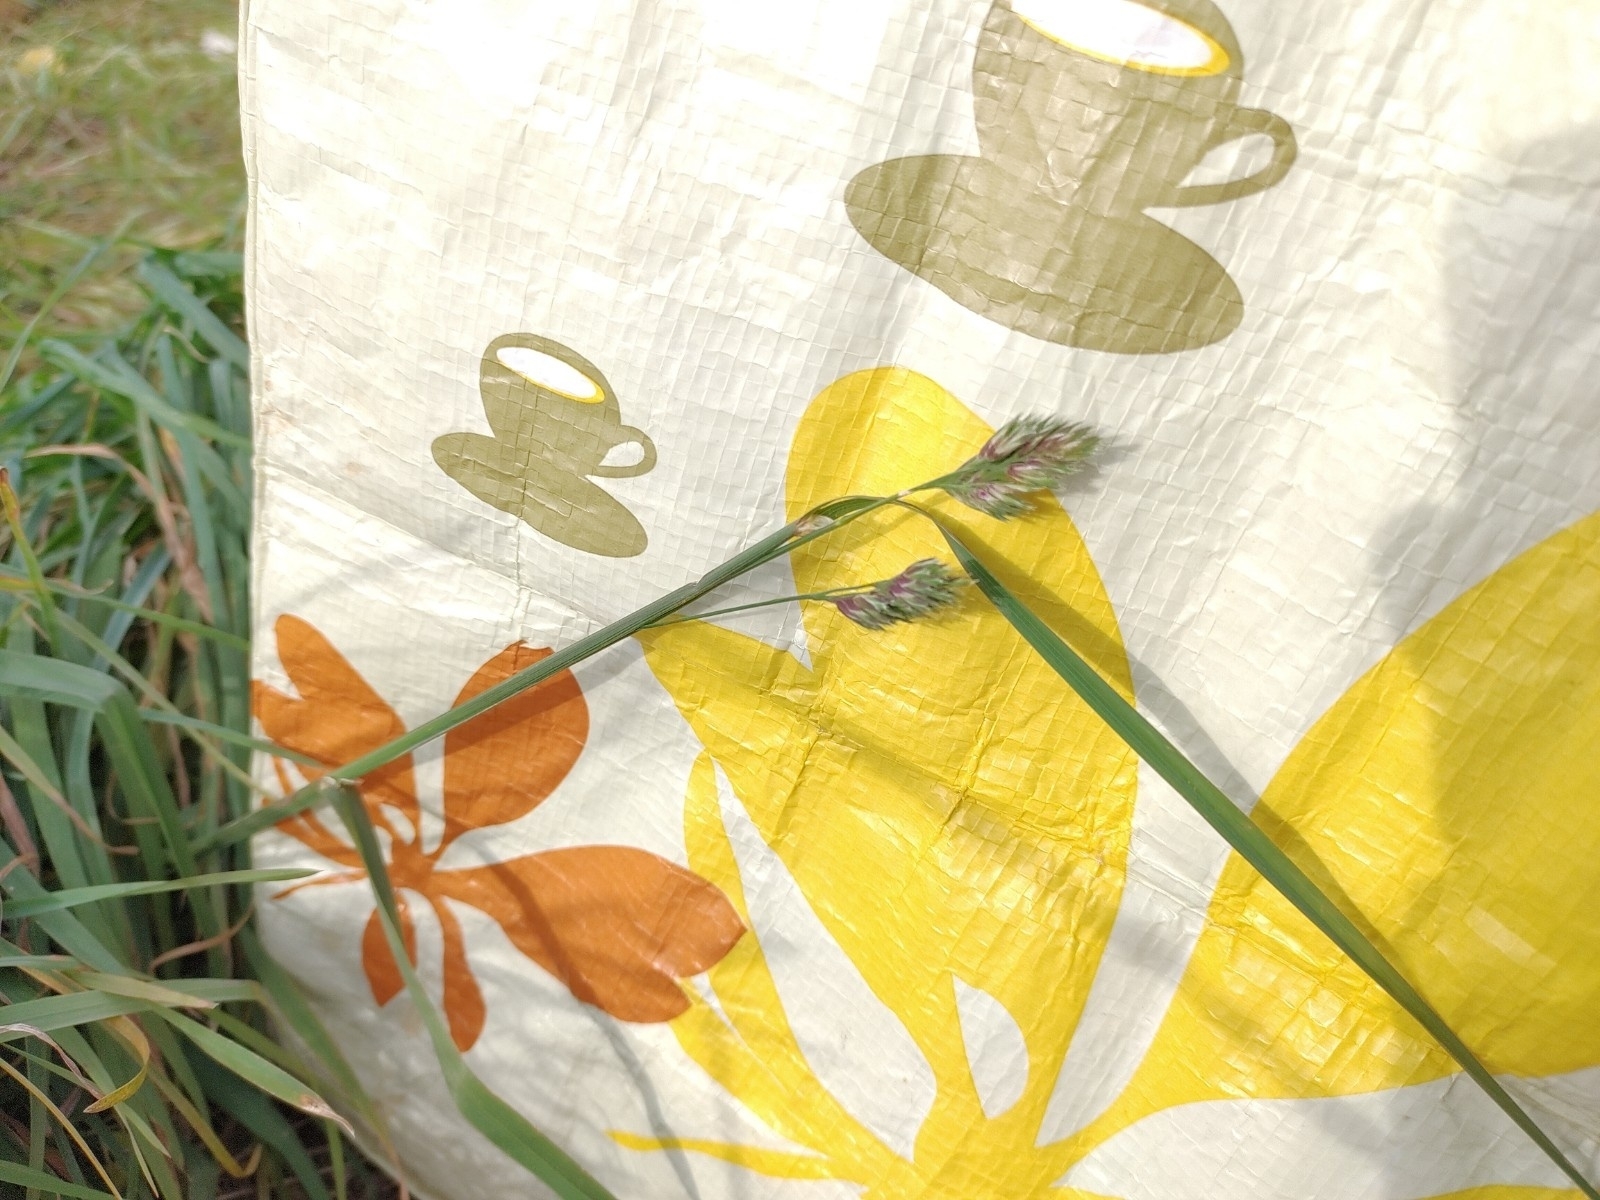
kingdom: Plantae
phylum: Tracheophyta
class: Liliopsida
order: Poales
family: Poaceae
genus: Dactylis
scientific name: Dactylis glomerata
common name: Orchardgrass
